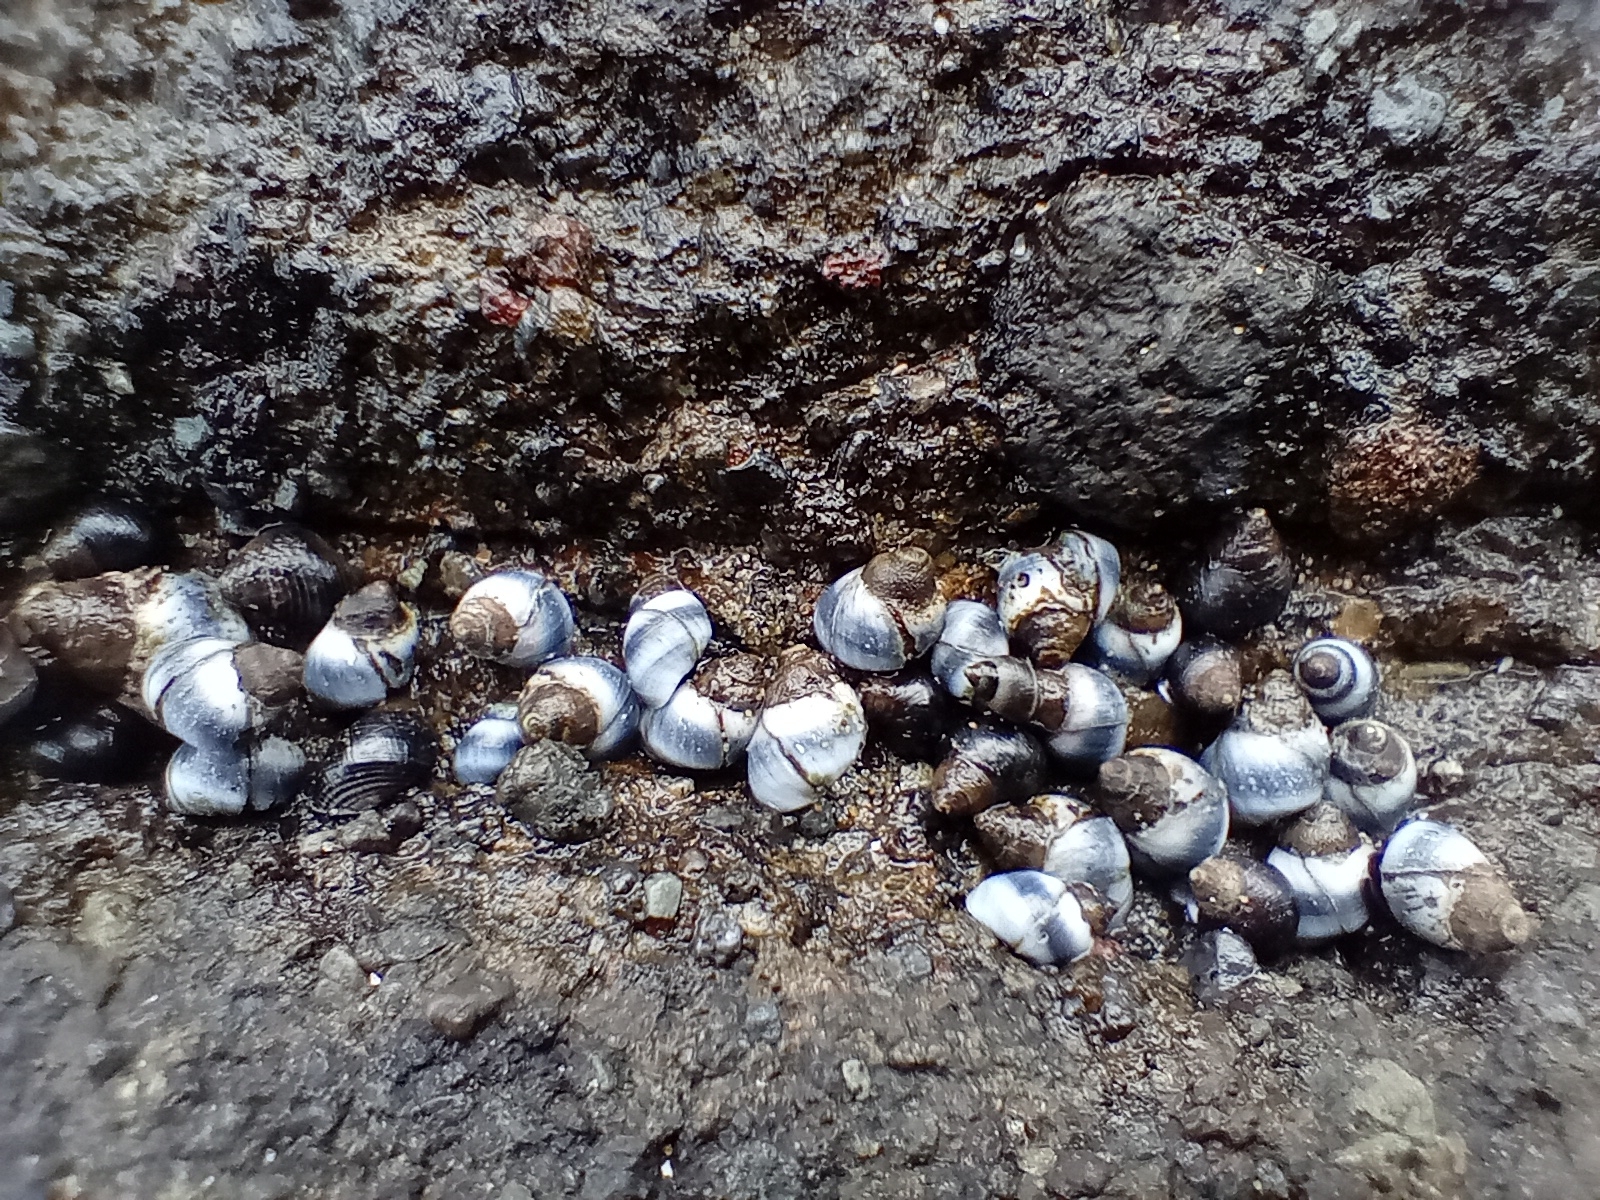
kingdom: Animalia
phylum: Mollusca
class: Gastropoda
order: Littorinimorpha
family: Littorinidae
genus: Austrolittorina
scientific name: Austrolittorina antipodum
